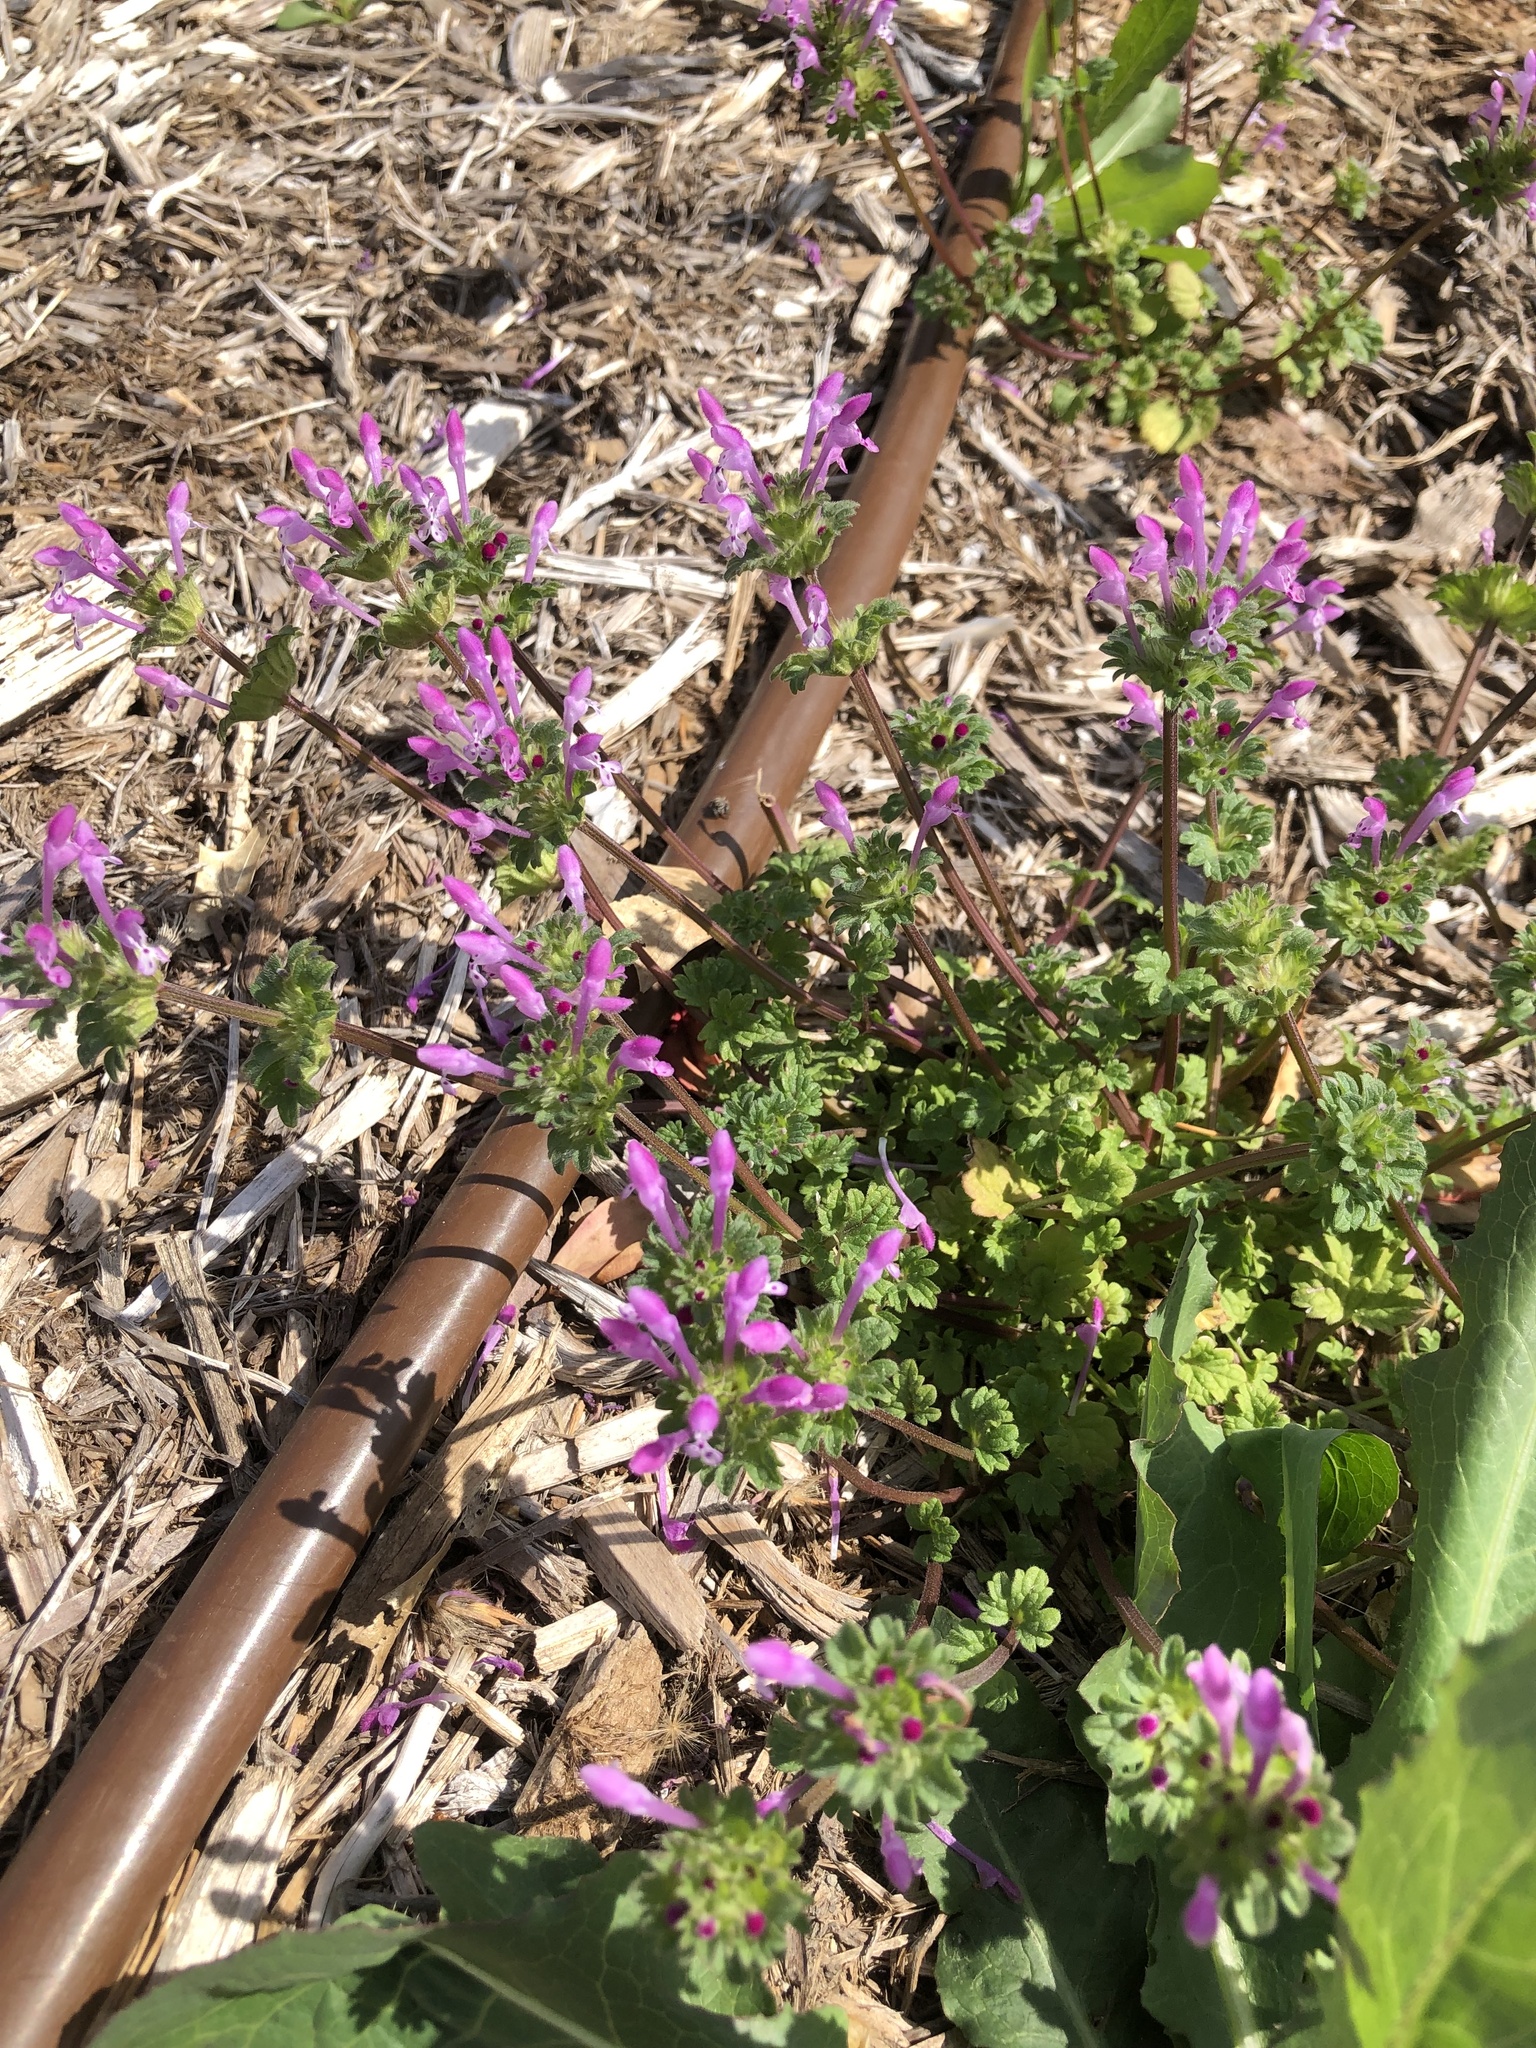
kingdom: Plantae
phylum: Tracheophyta
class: Magnoliopsida
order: Lamiales
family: Lamiaceae
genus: Lamium
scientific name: Lamium amplexicaule
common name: Henbit dead-nettle
